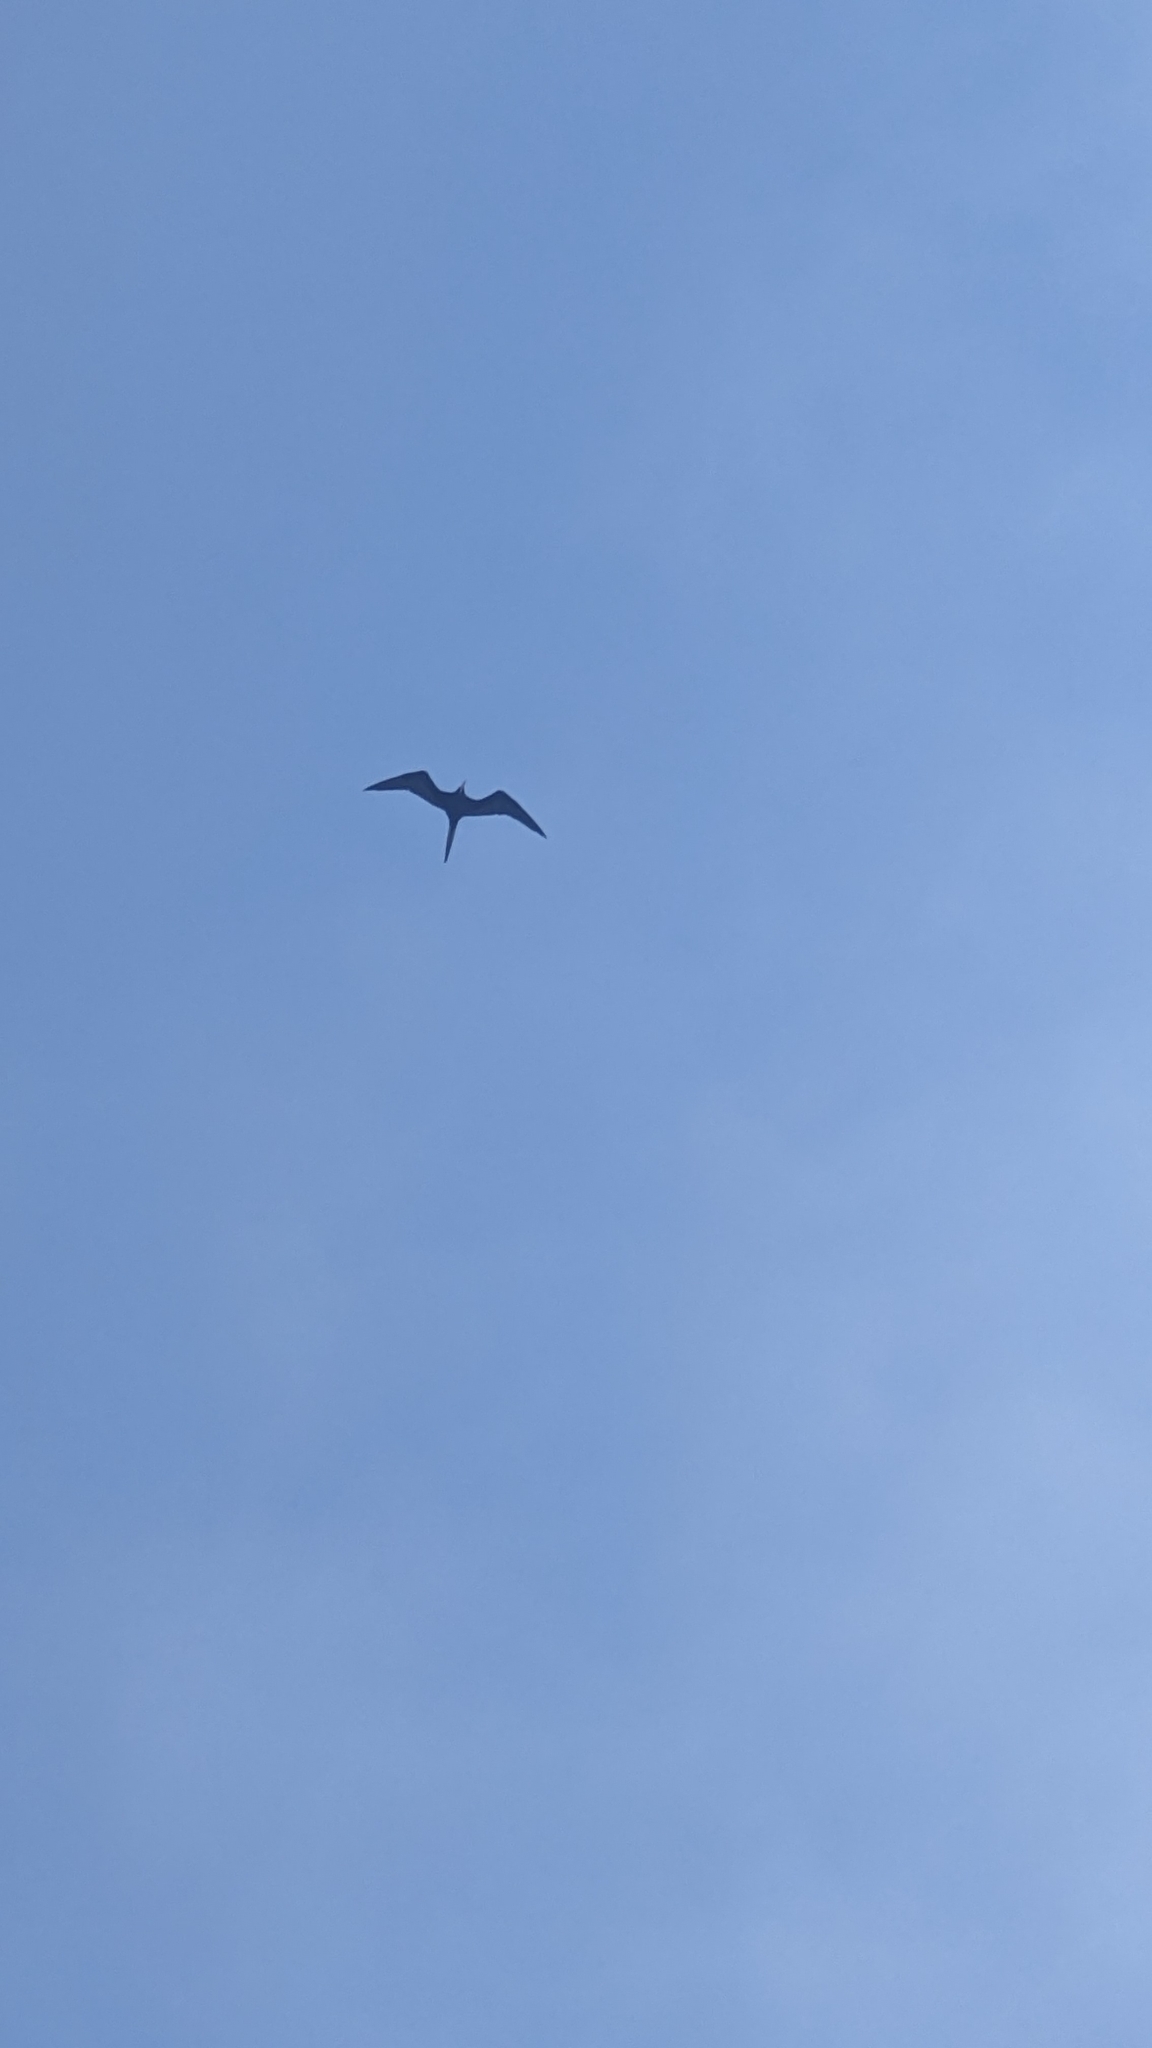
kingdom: Animalia
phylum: Chordata
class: Aves
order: Suliformes
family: Fregatidae
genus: Fregata
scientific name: Fregata magnificens
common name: Magnificent frigatebird
